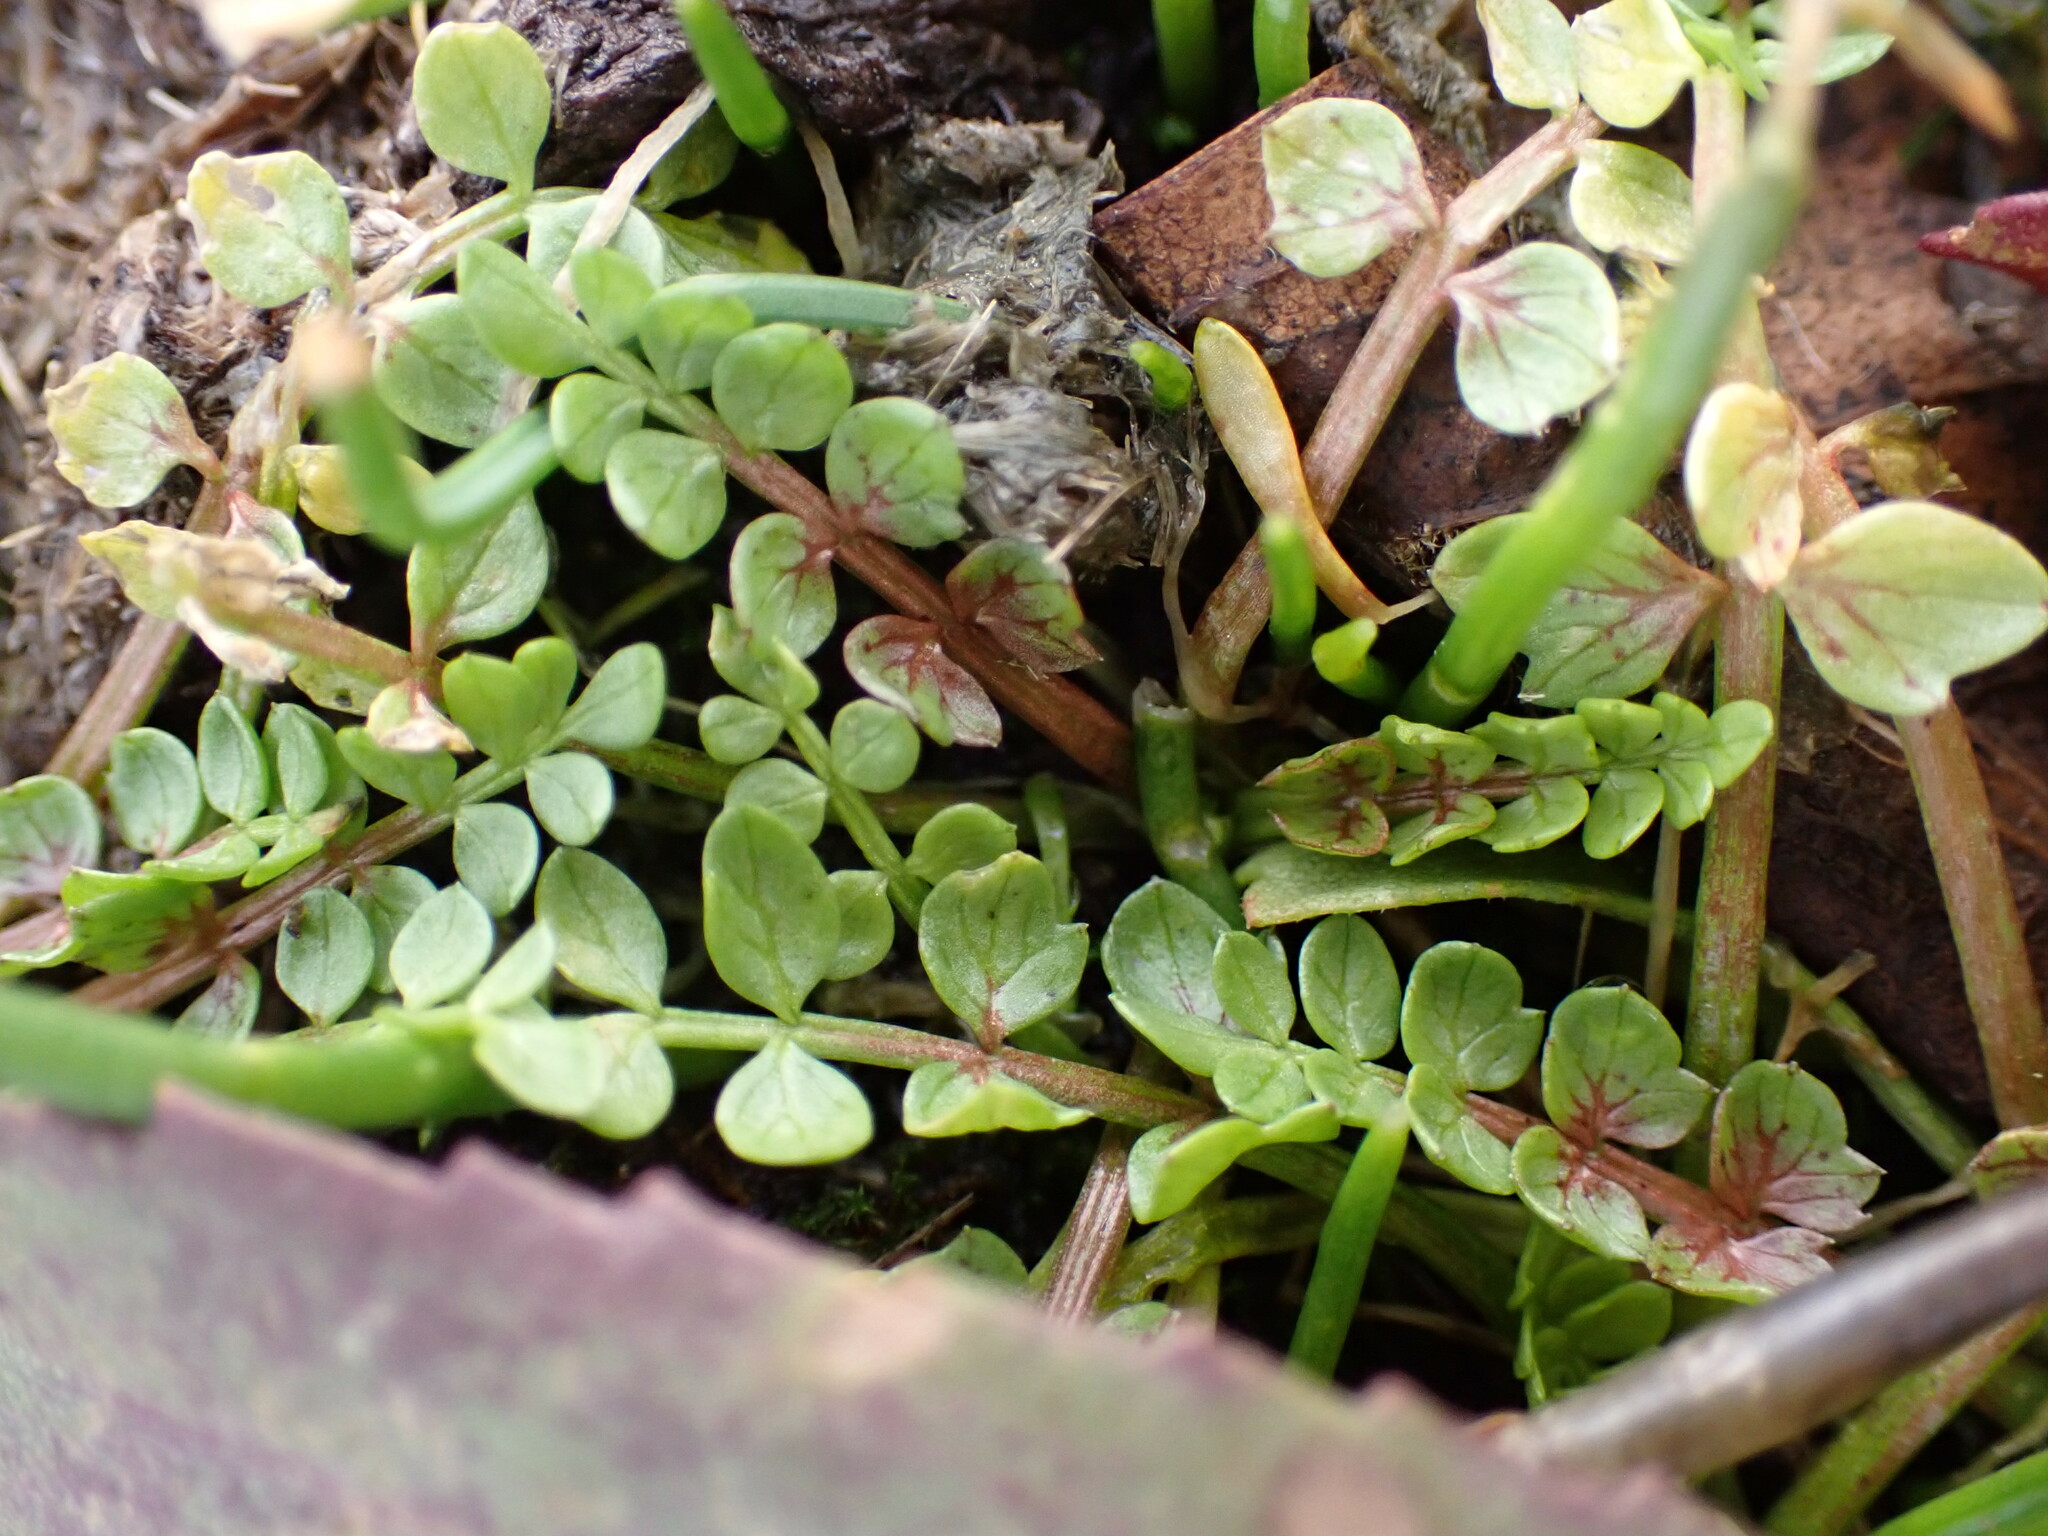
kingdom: Plantae
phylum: Tracheophyta
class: Magnoliopsida
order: Brassicales
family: Limnanthaceae
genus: Limnanthes
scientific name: Limnanthes macounii
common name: Macoun's meadowfoam
